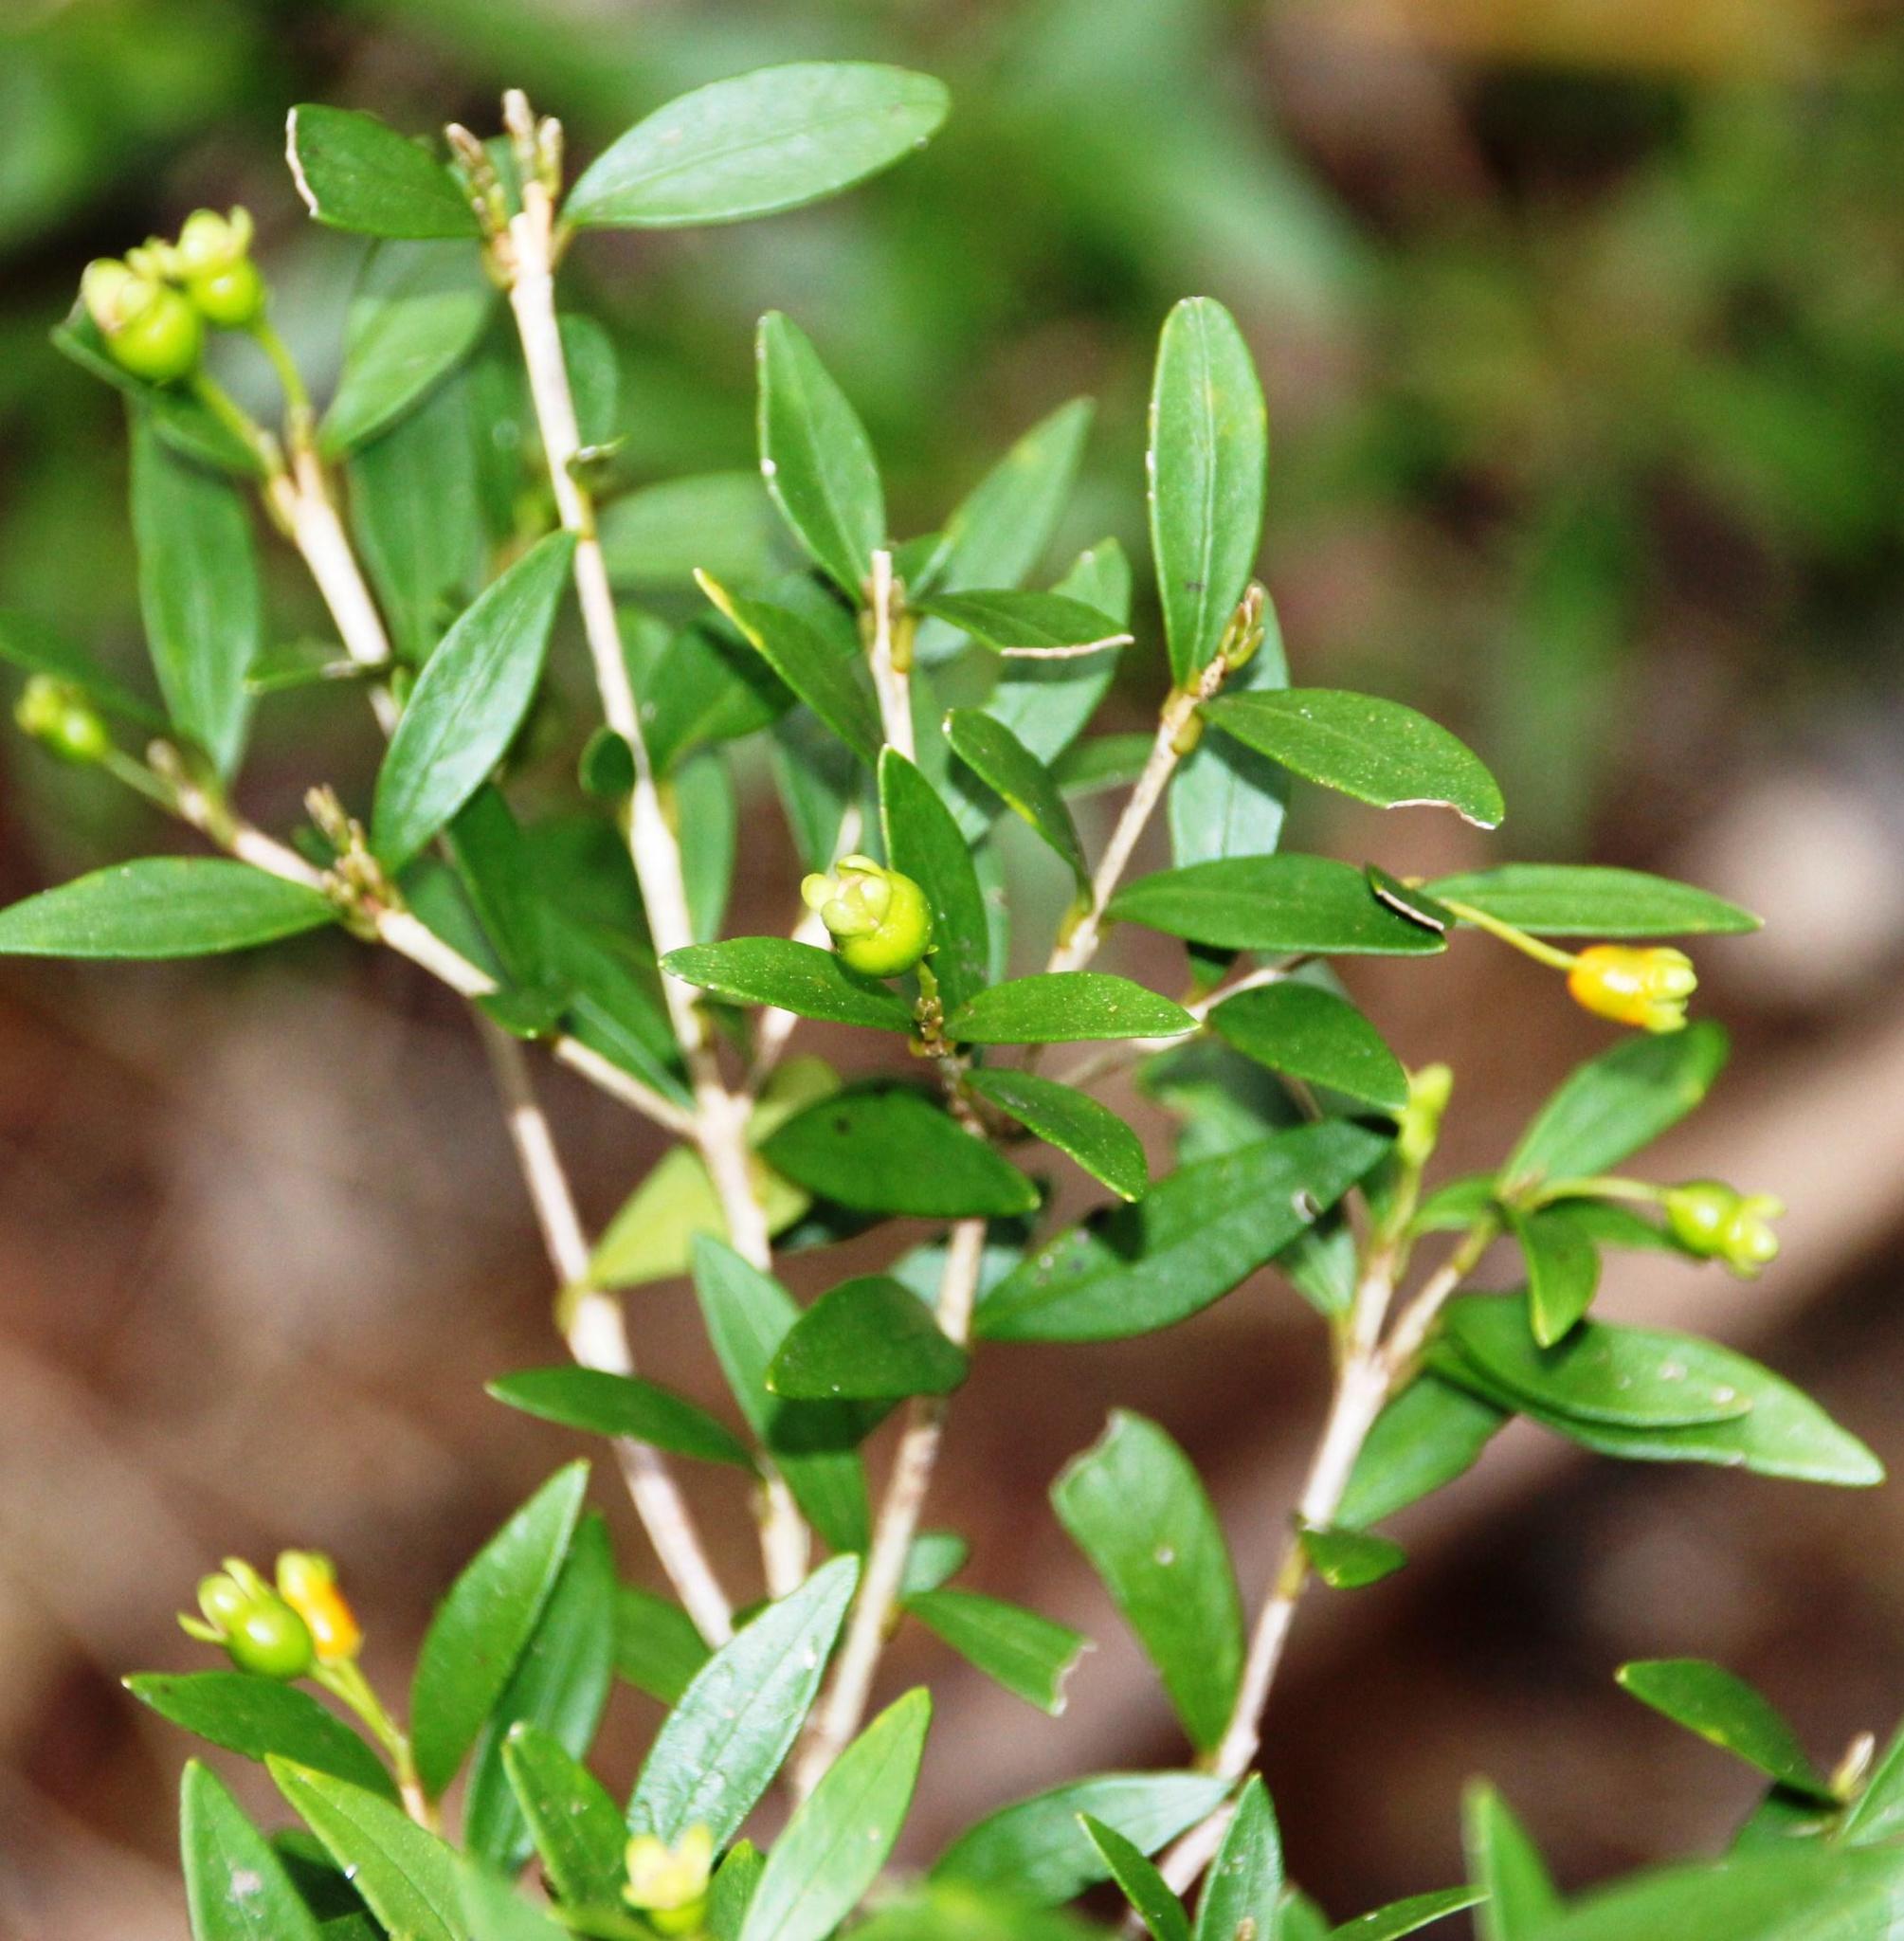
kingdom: Plantae
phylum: Tracheophyta
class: Magnoliopsida
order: Myrtales
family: Myrtaceae
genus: Myrceugenia
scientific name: Myrceugenia chrysocarpa
